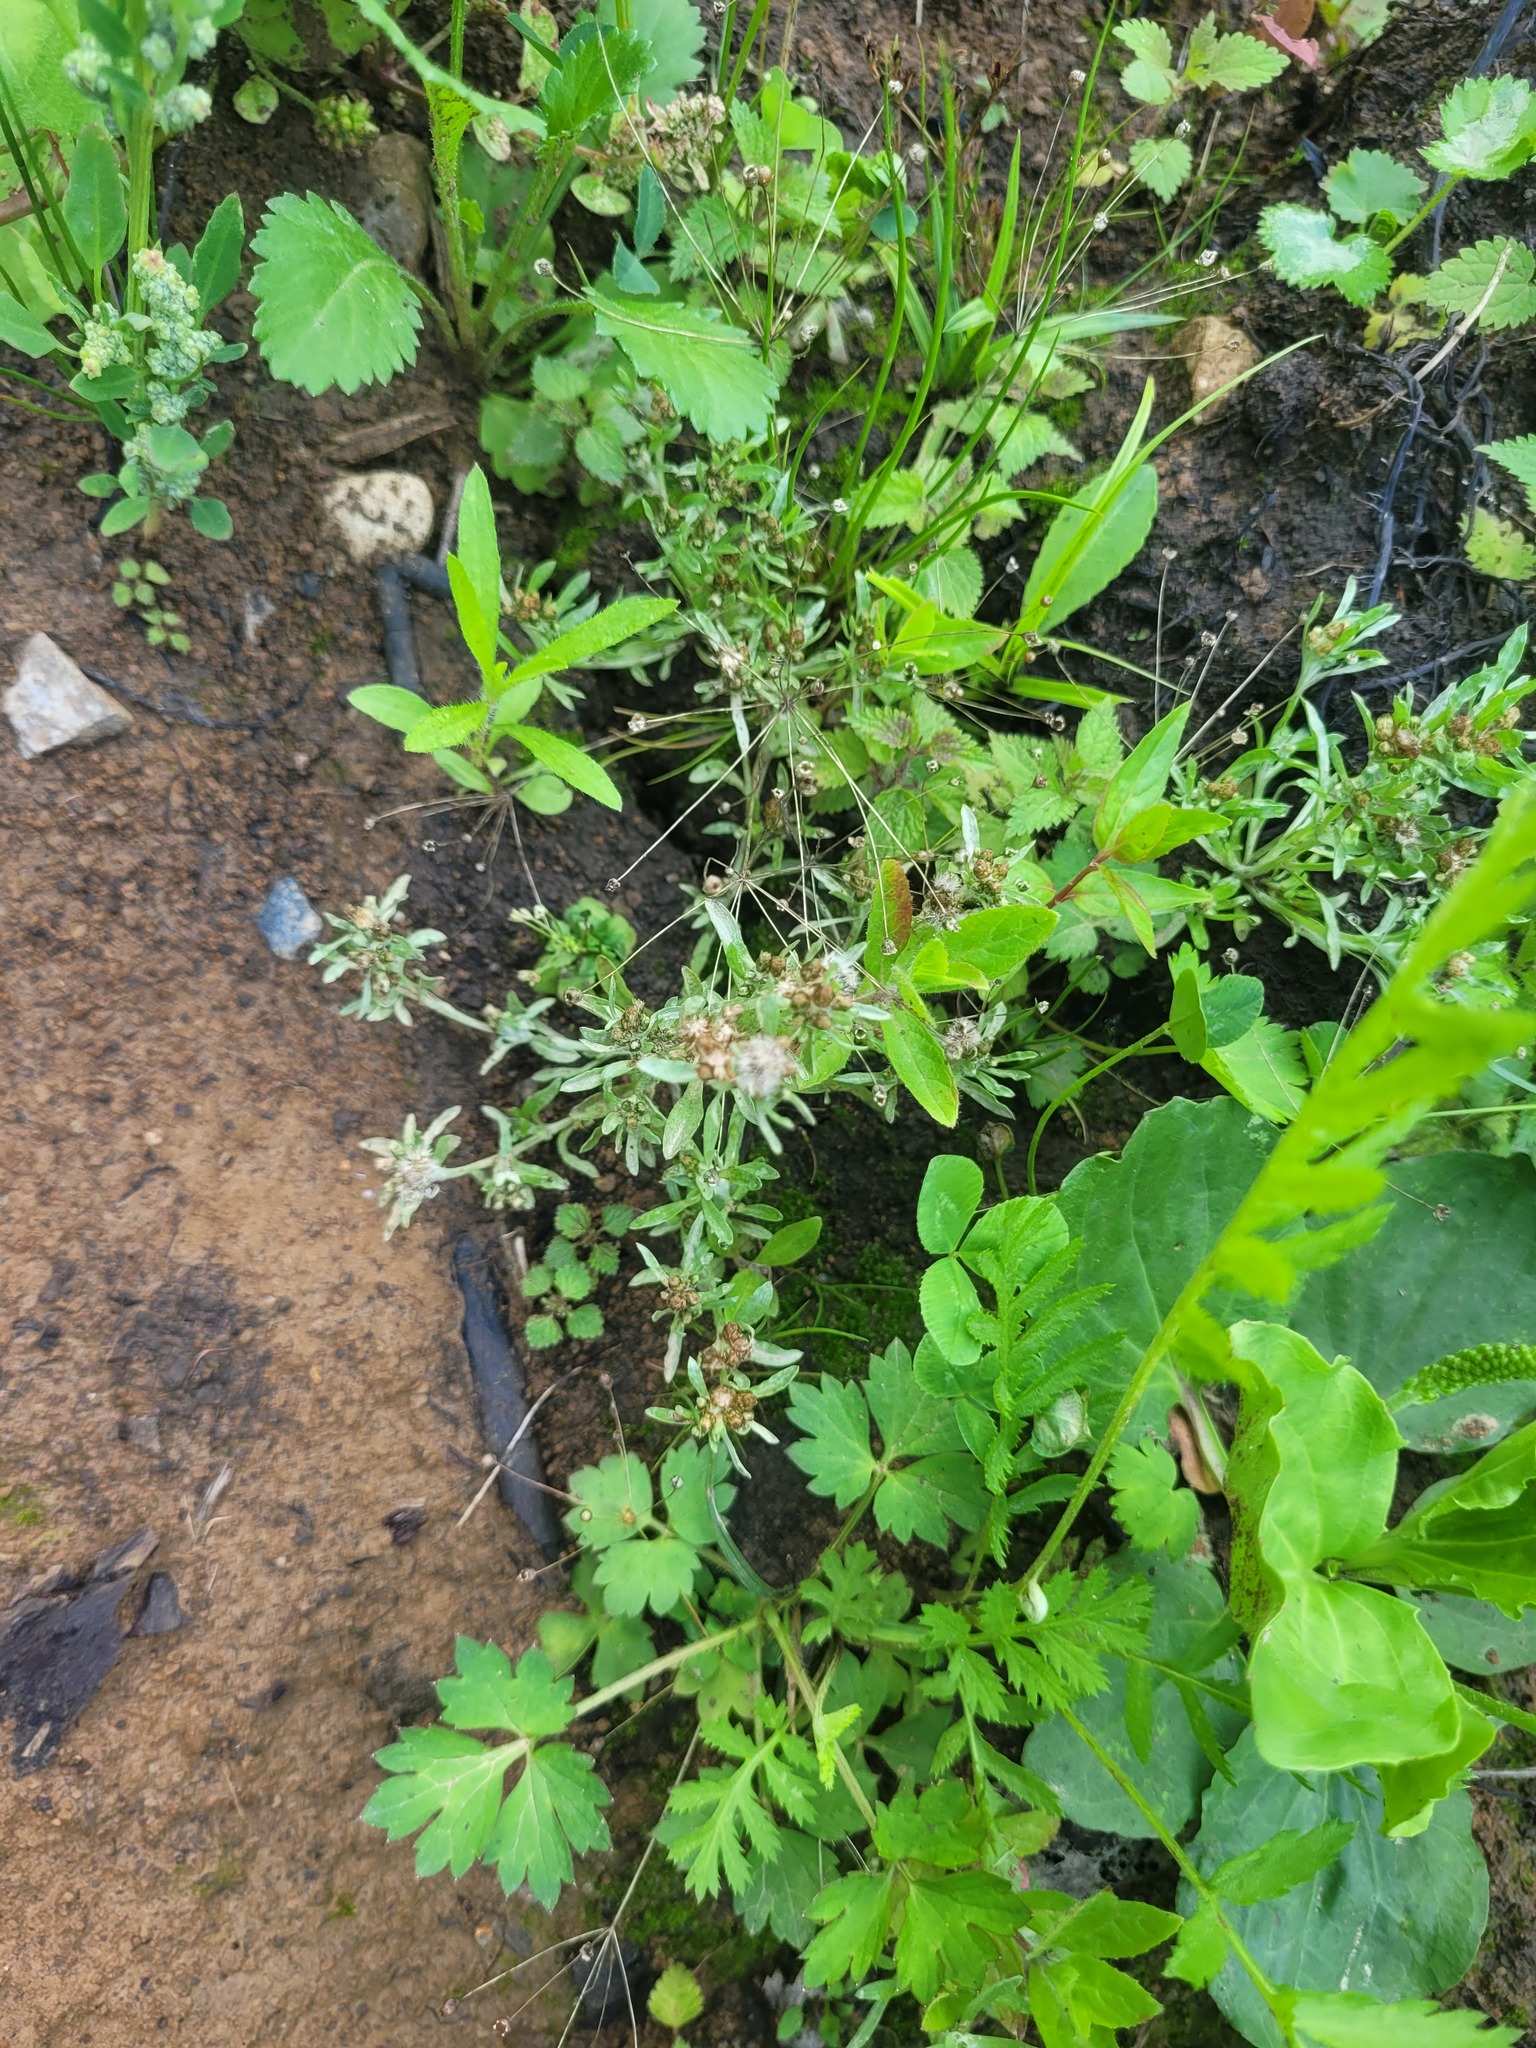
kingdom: Plantae
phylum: Tracheophyta
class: Magnoliopsida
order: Asterales
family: Asteraceae
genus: Gnaphalium
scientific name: Gnaphalium uliginosum
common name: Marsh cudweed
